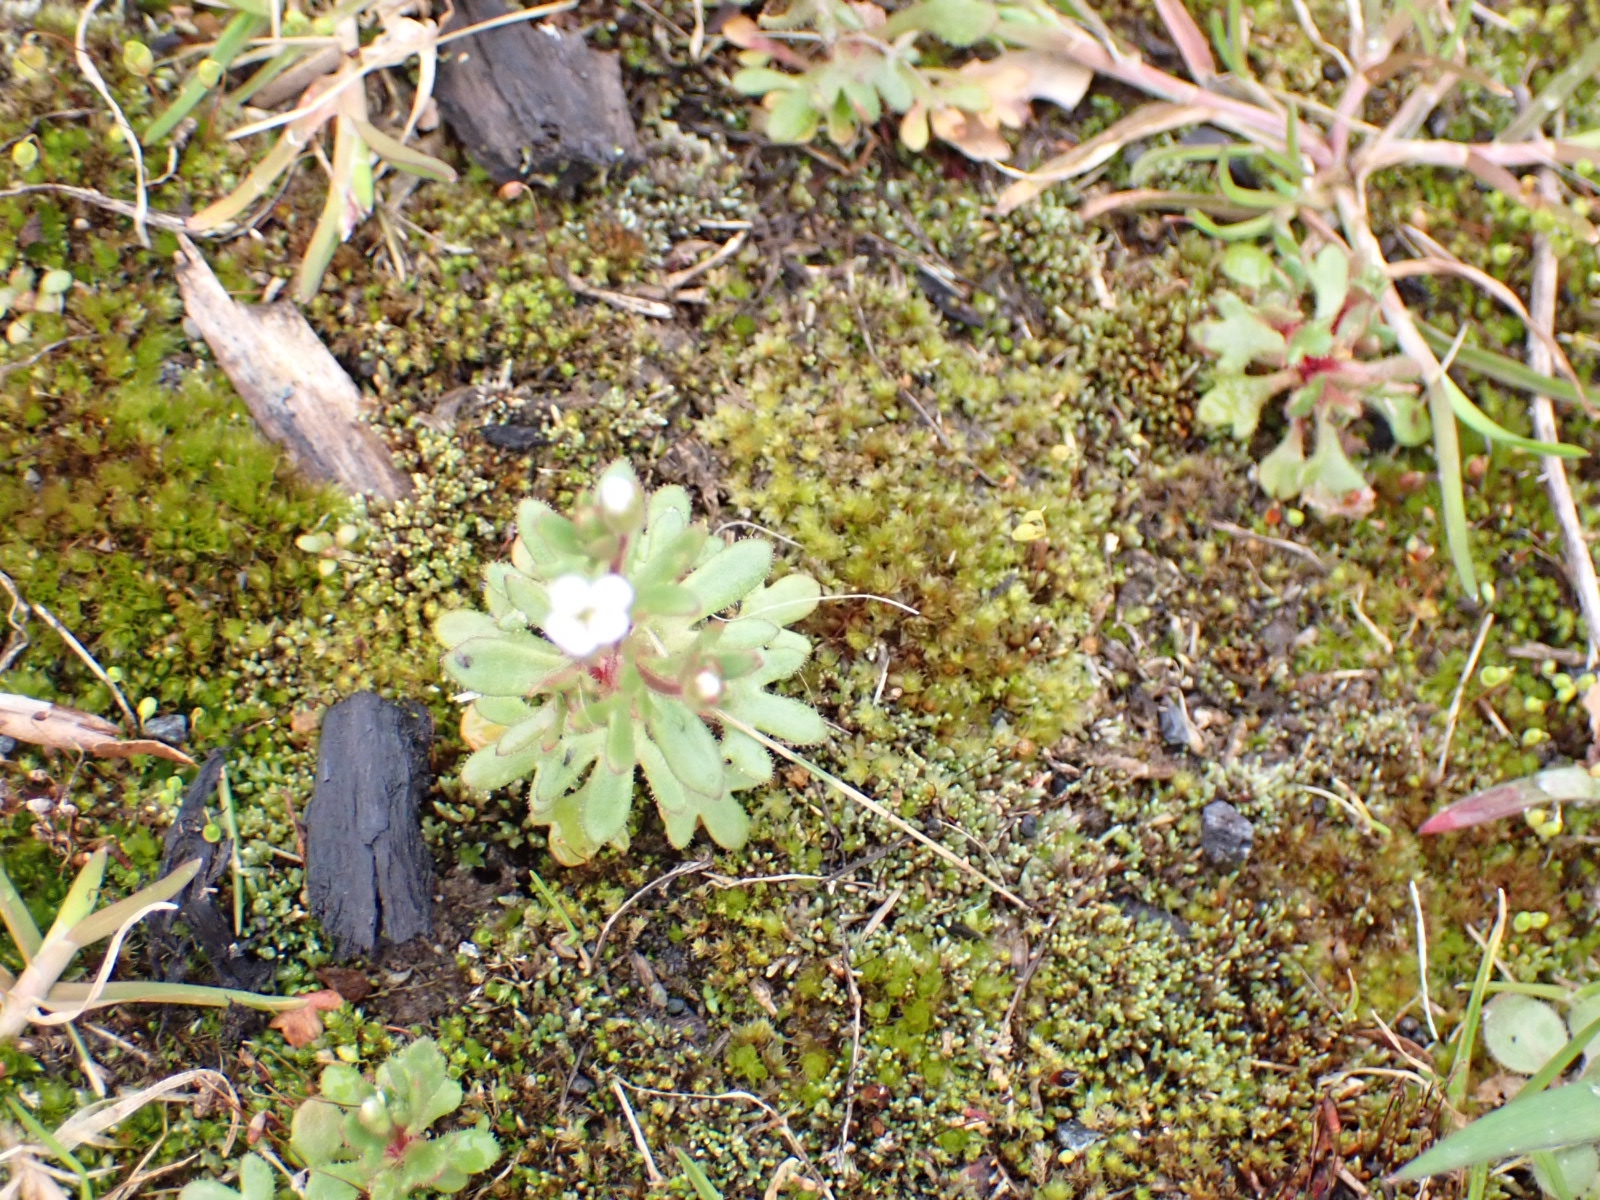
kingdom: Plantae
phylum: Tracheophyta
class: Magnoliopsida
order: Saxifragales
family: Saxifragaceae
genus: Saxifraga
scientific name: Saxifraga tridactylites
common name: Rue-leaved saxifrage
